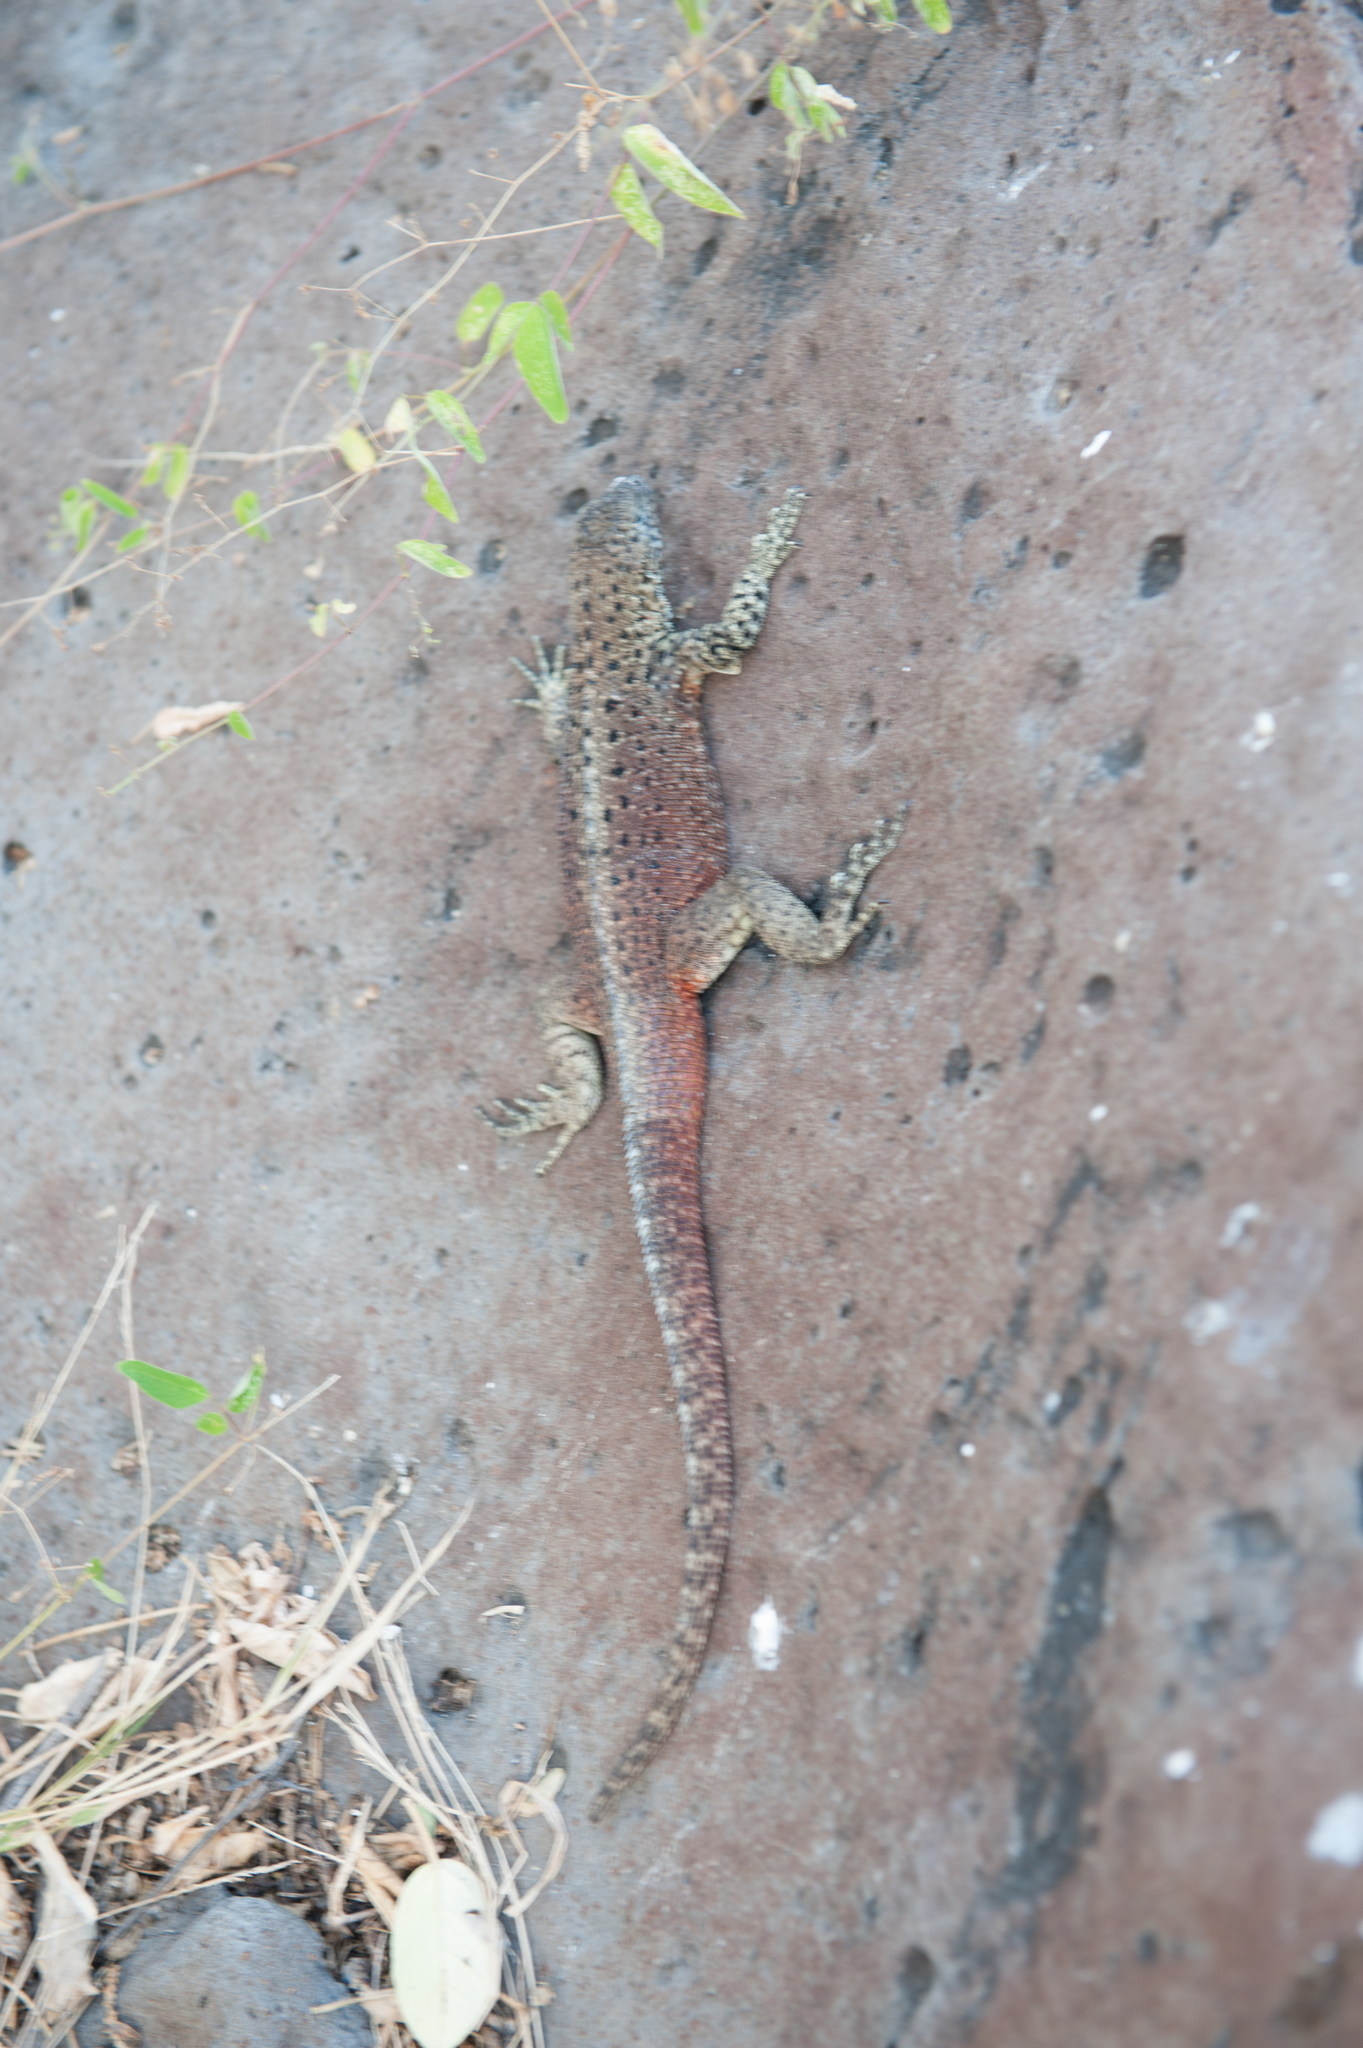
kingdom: Animalia
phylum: Chordata
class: Squamata
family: Tropiduridae
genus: Microlophus
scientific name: Microlophus delanonis
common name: Hood lava lizard
